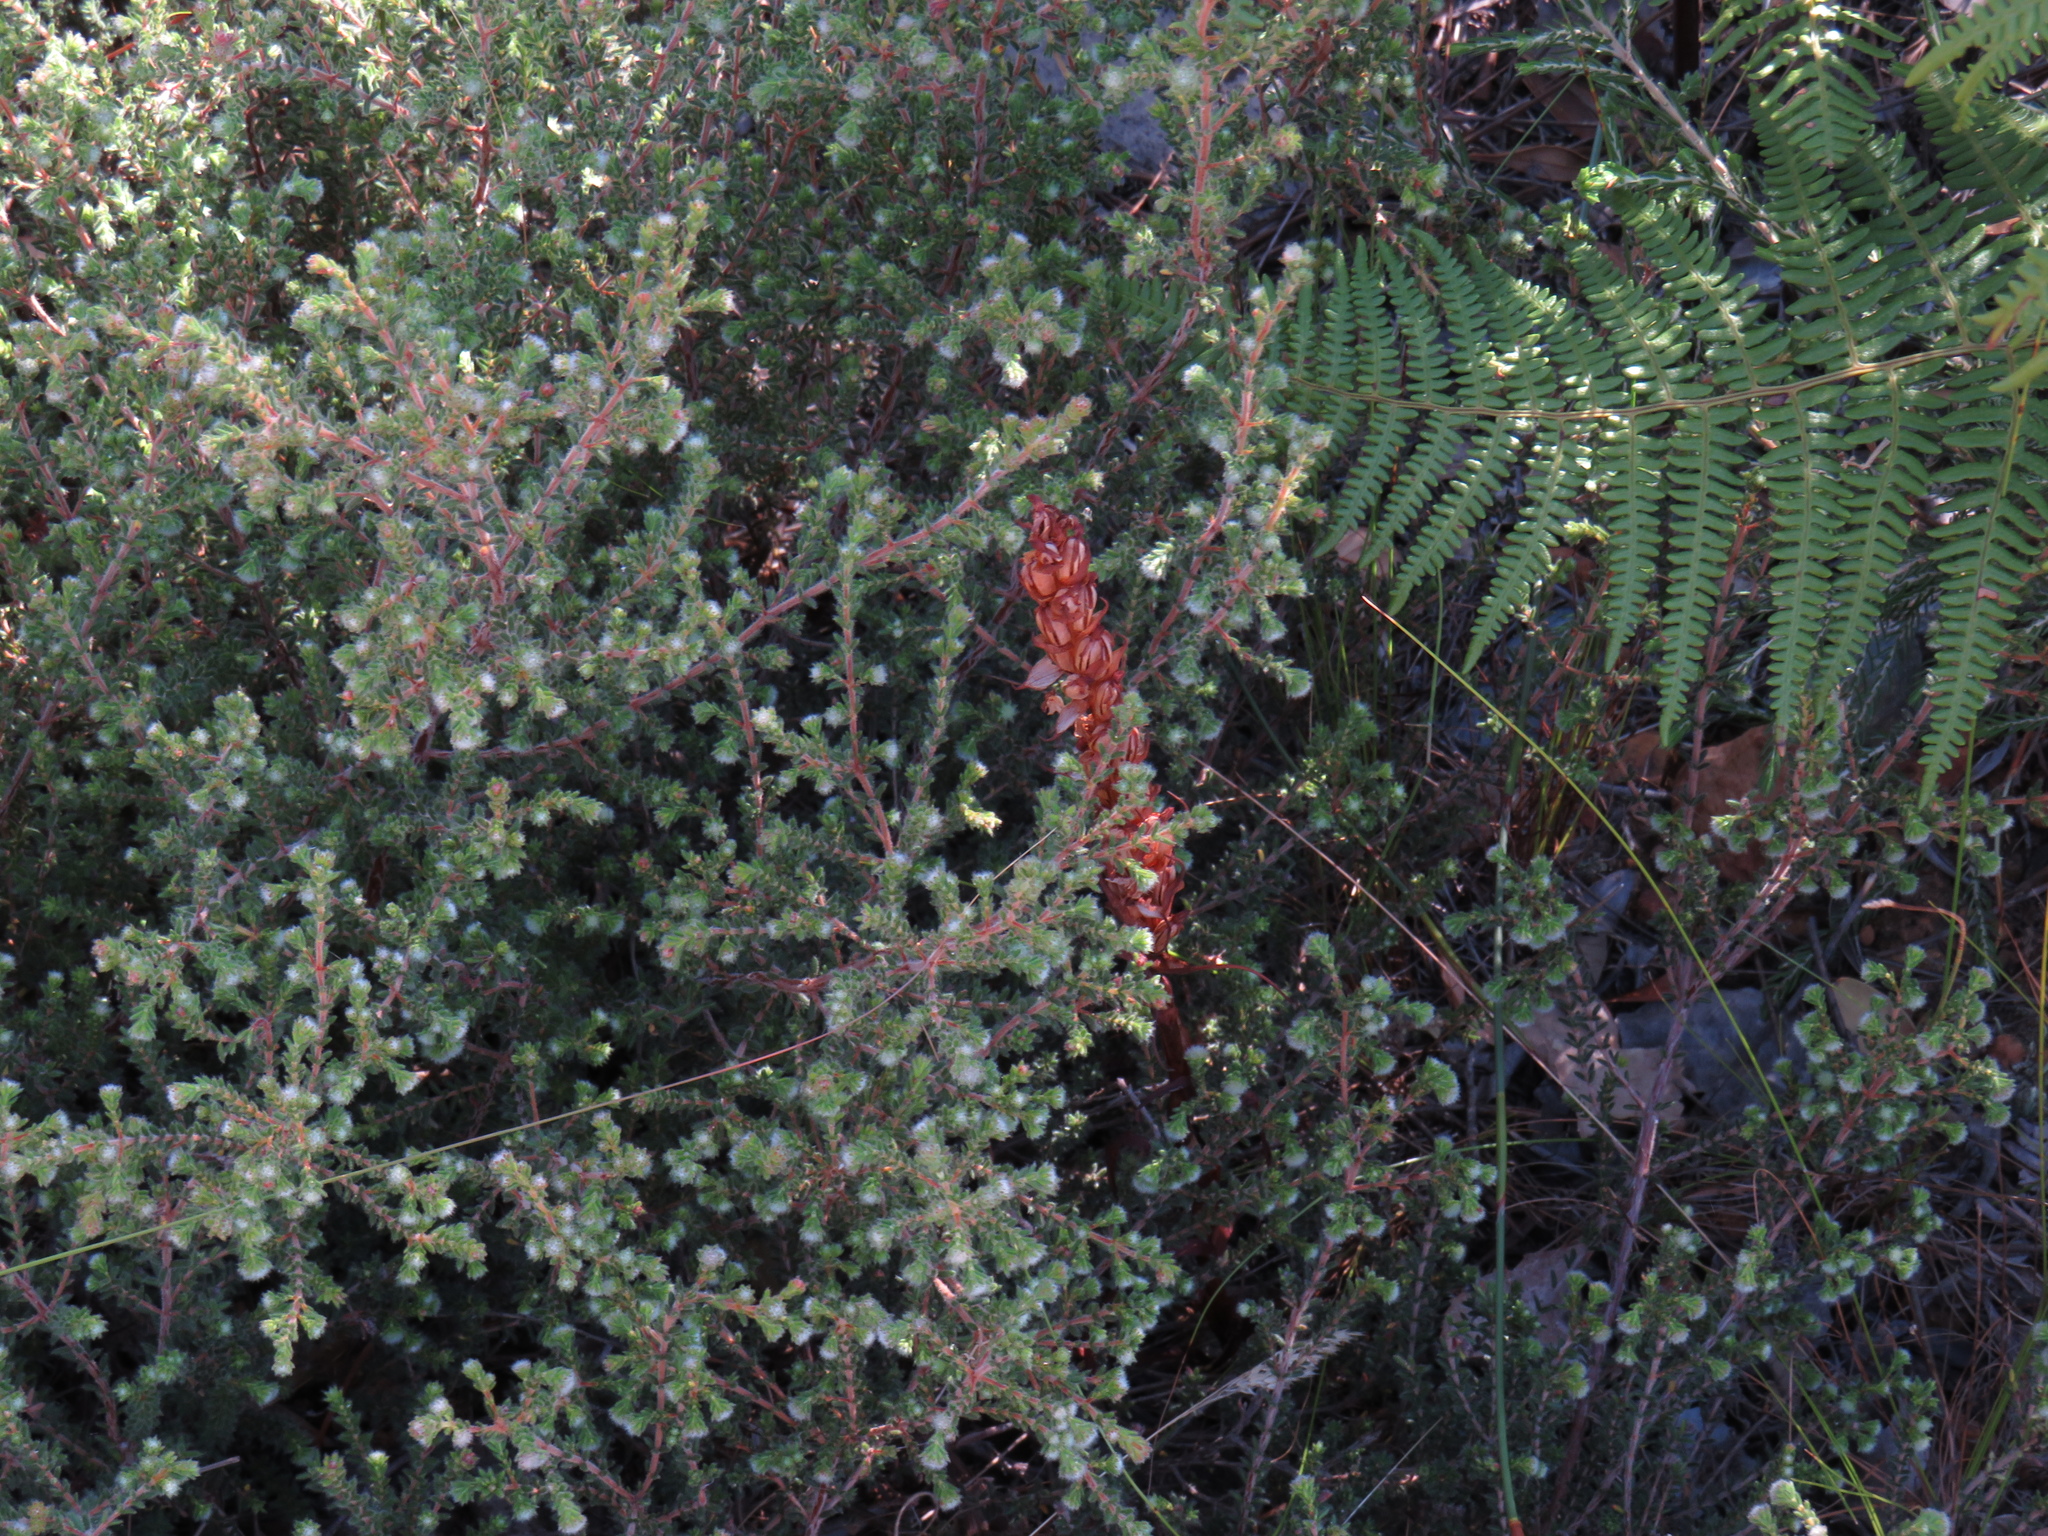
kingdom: Plantae
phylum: Tracheophyta
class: Liliopsida
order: Asparagales
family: Orchidaceae
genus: Disa
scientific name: Disa bracteata
